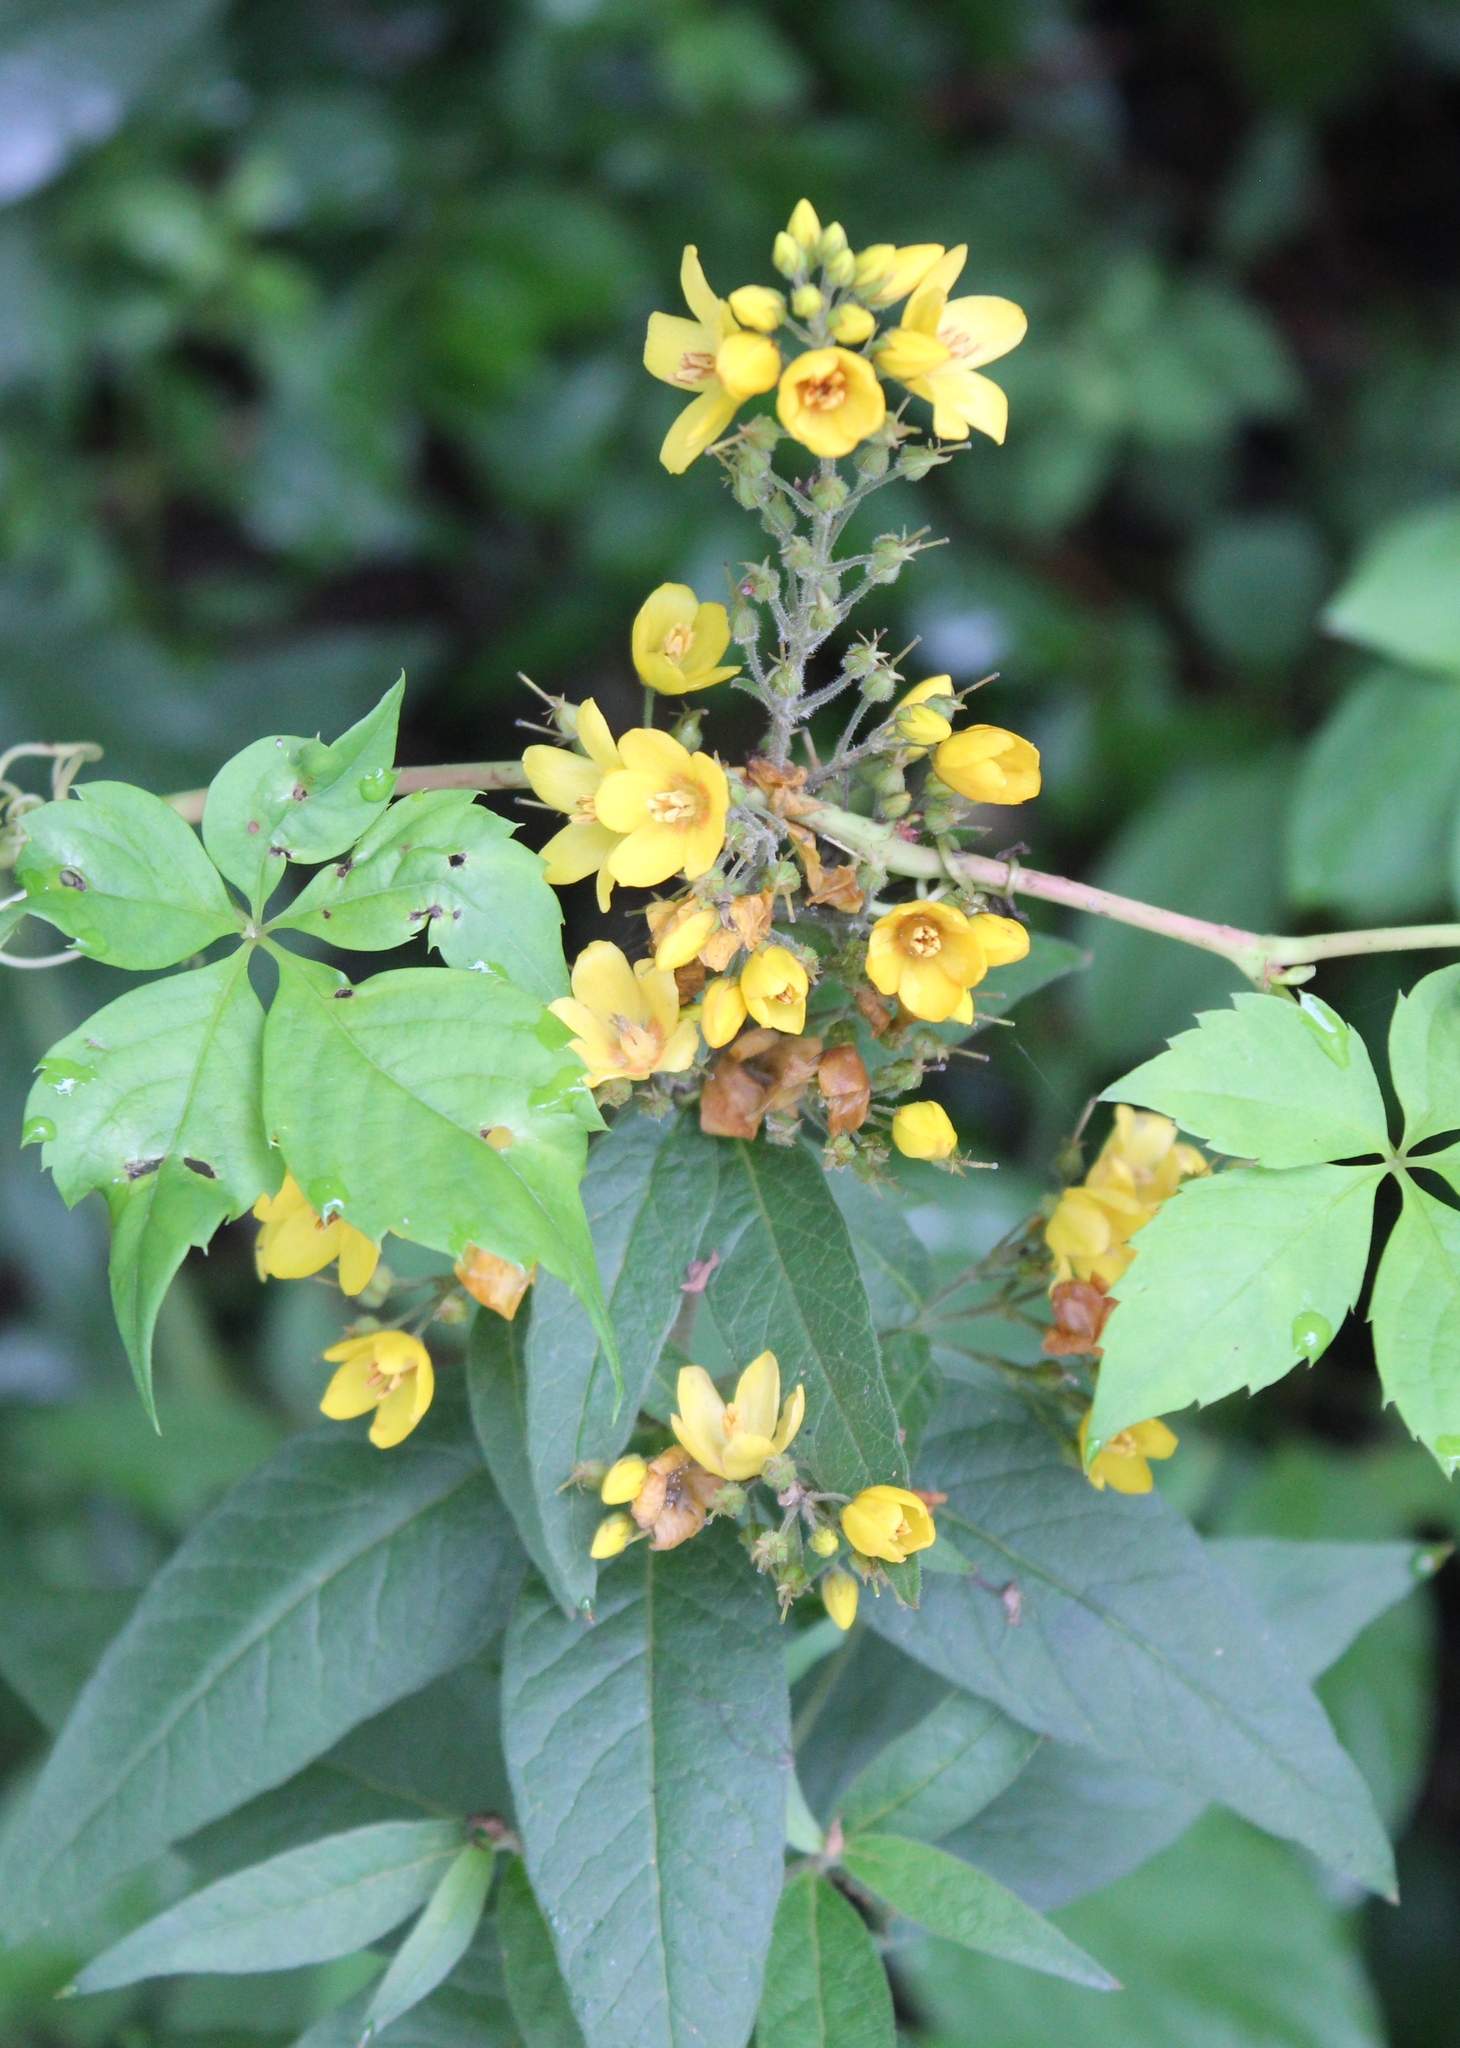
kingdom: Plantae
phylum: Tracheophyta
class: Magnoliopsida
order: Ericales
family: Primulaceae
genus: Lysimachia
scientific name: Lysimachia vulgaris
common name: Yellow loosestrife
